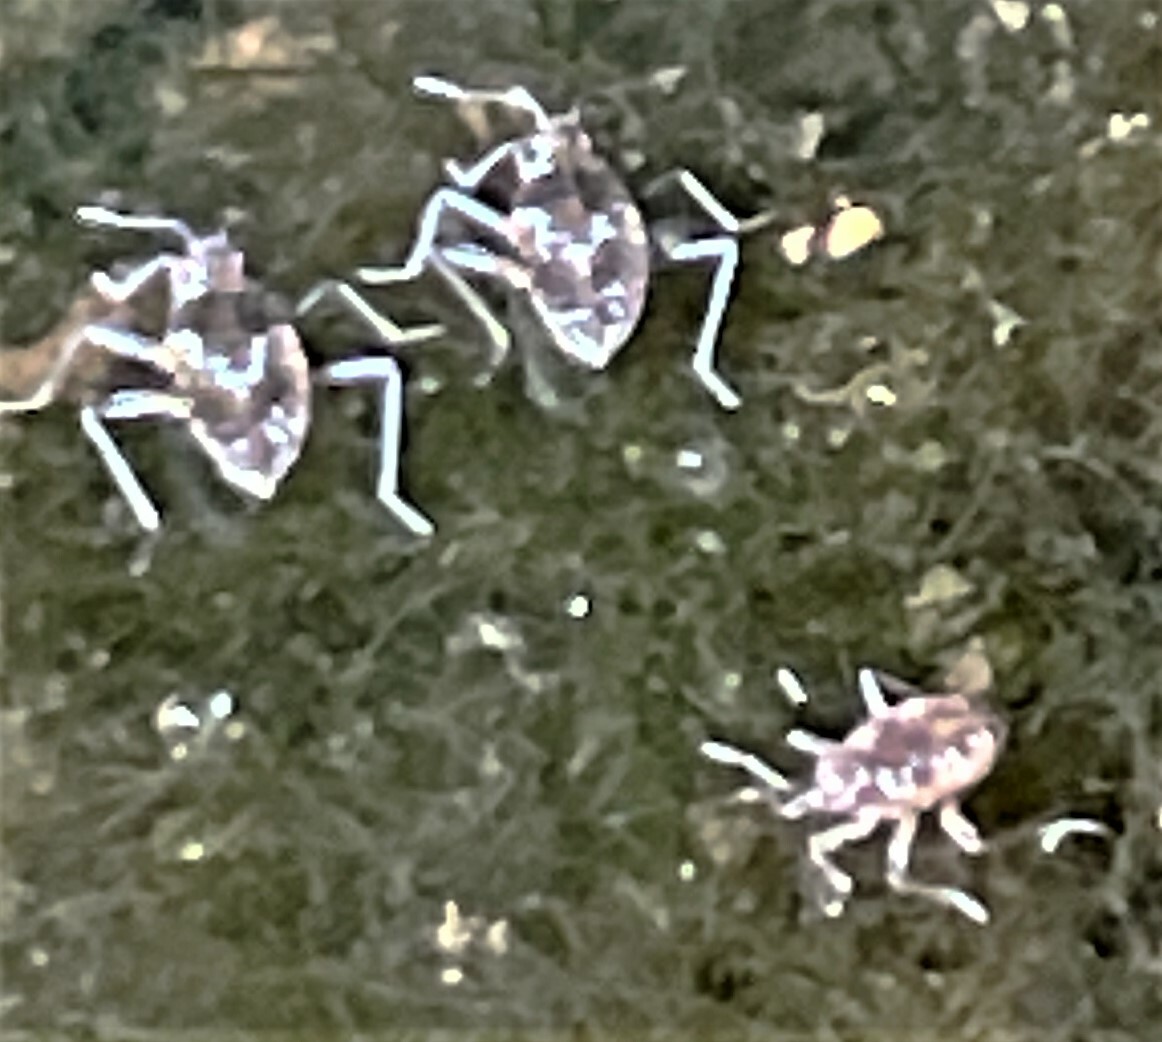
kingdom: Animalia
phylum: Arthropoda
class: Insecta
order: Hemiptera
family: Veliidae
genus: Microvelia
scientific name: Microvelia americana
